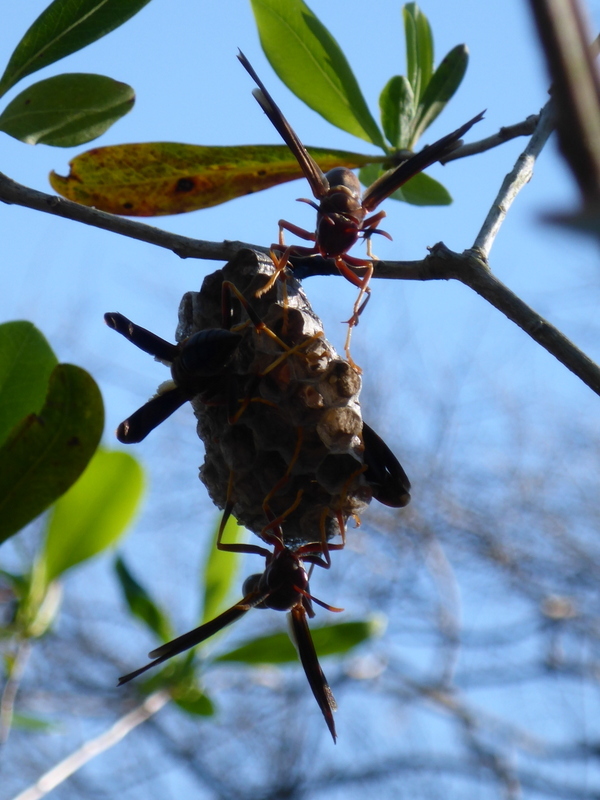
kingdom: Animalia
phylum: Arthropoda
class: Insecta
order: Hymenoptera
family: Eumenidae
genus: Polistes
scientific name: Polistes annularis
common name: Ringed paper wasp
